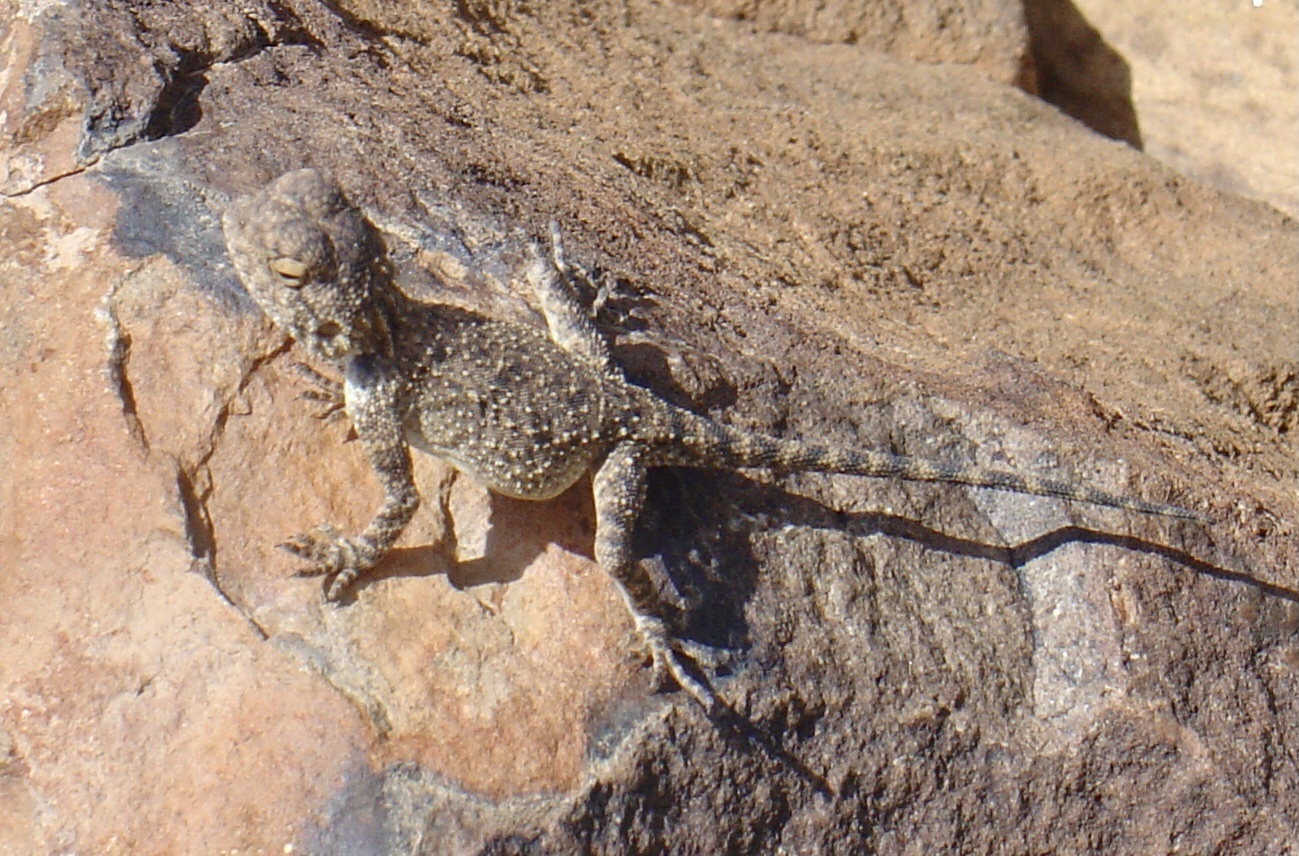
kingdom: Animalia
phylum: Chordata
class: Squamata
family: Agamidae
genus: Agama
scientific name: Agama atra
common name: Southern african rock agama
